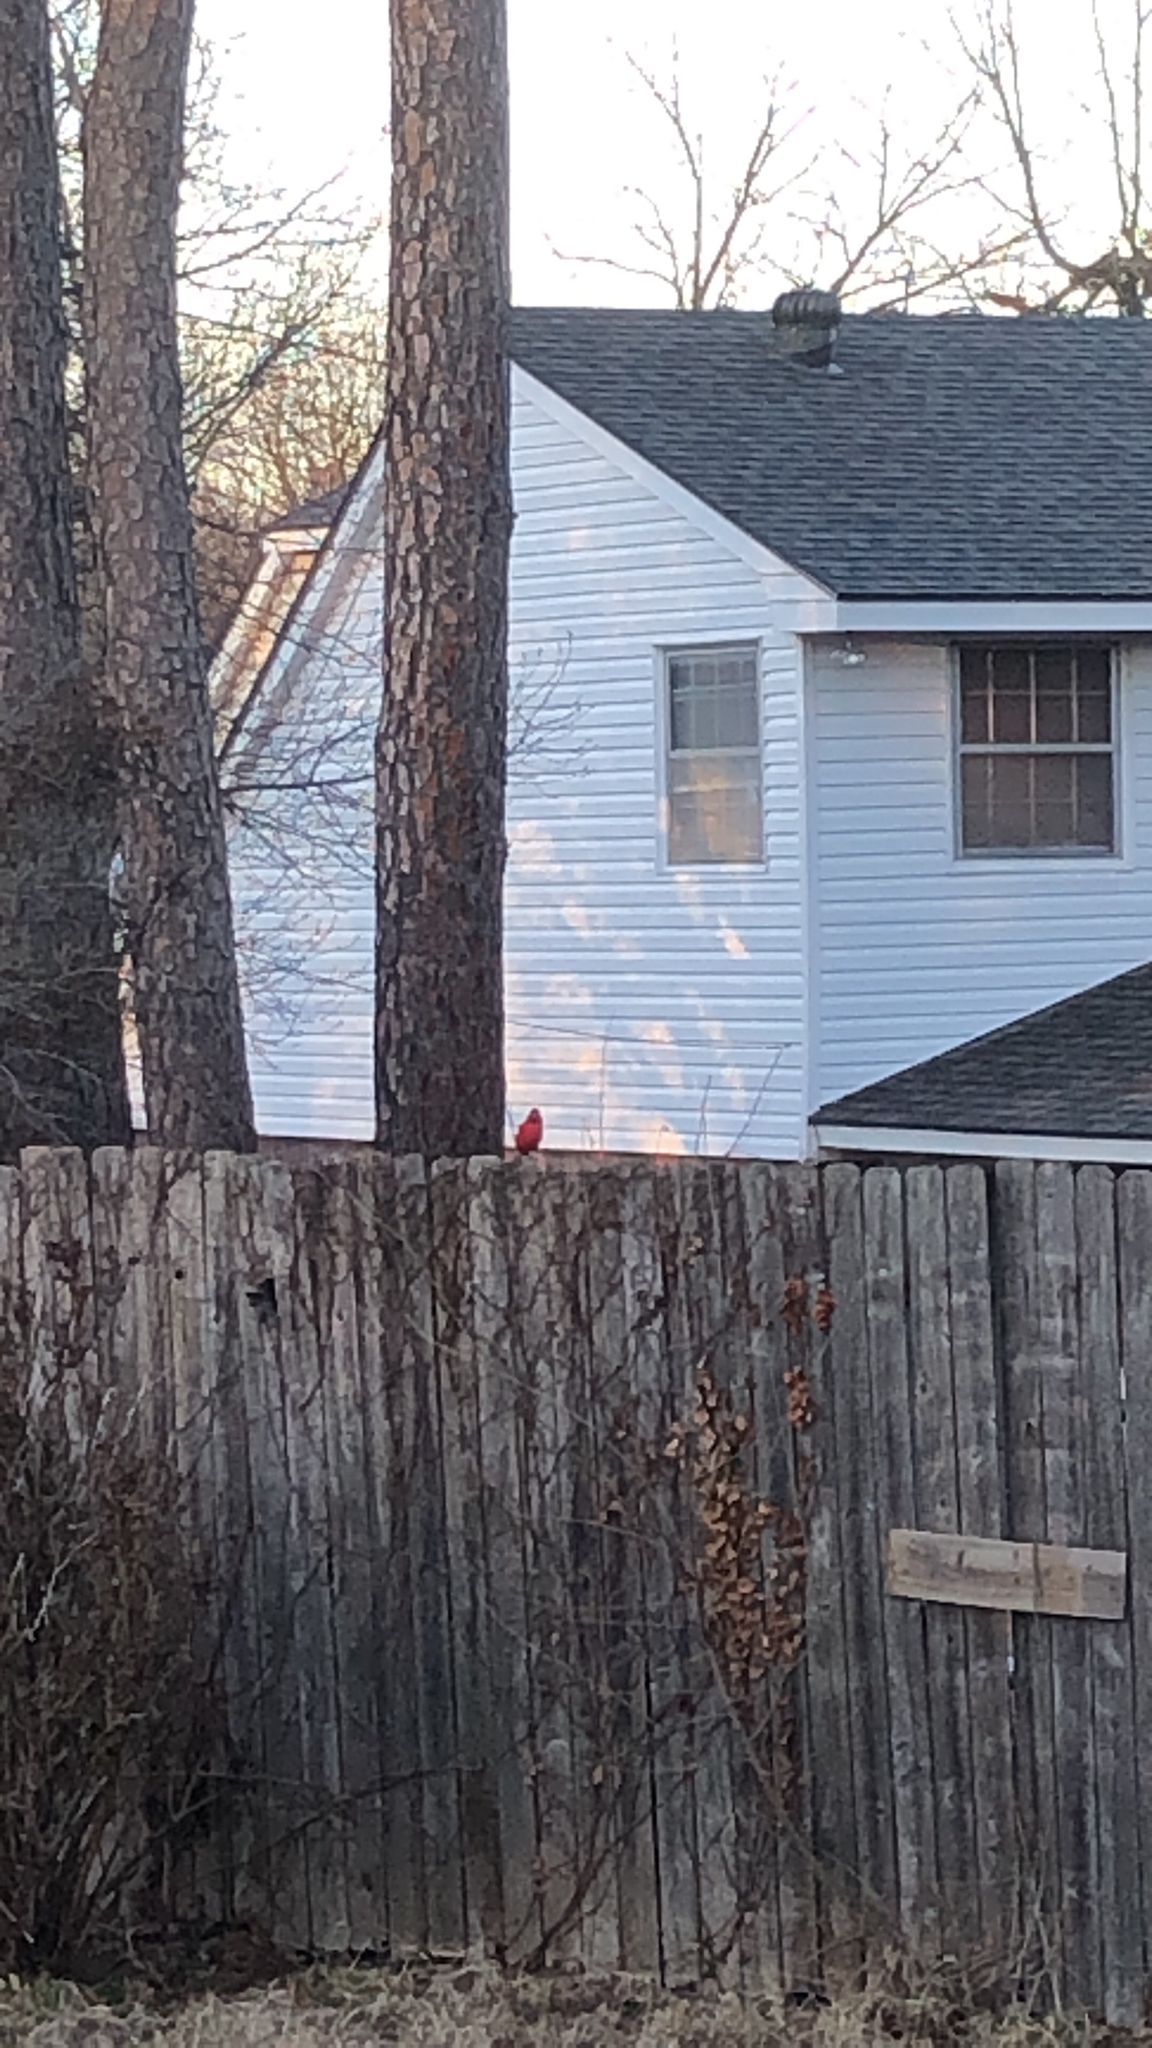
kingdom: Animalia
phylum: Chordata
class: Aves
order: Passeriformes
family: Cardinalidae
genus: Cardinalis
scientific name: Cardinalis cardinalis
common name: Northern cardinal
